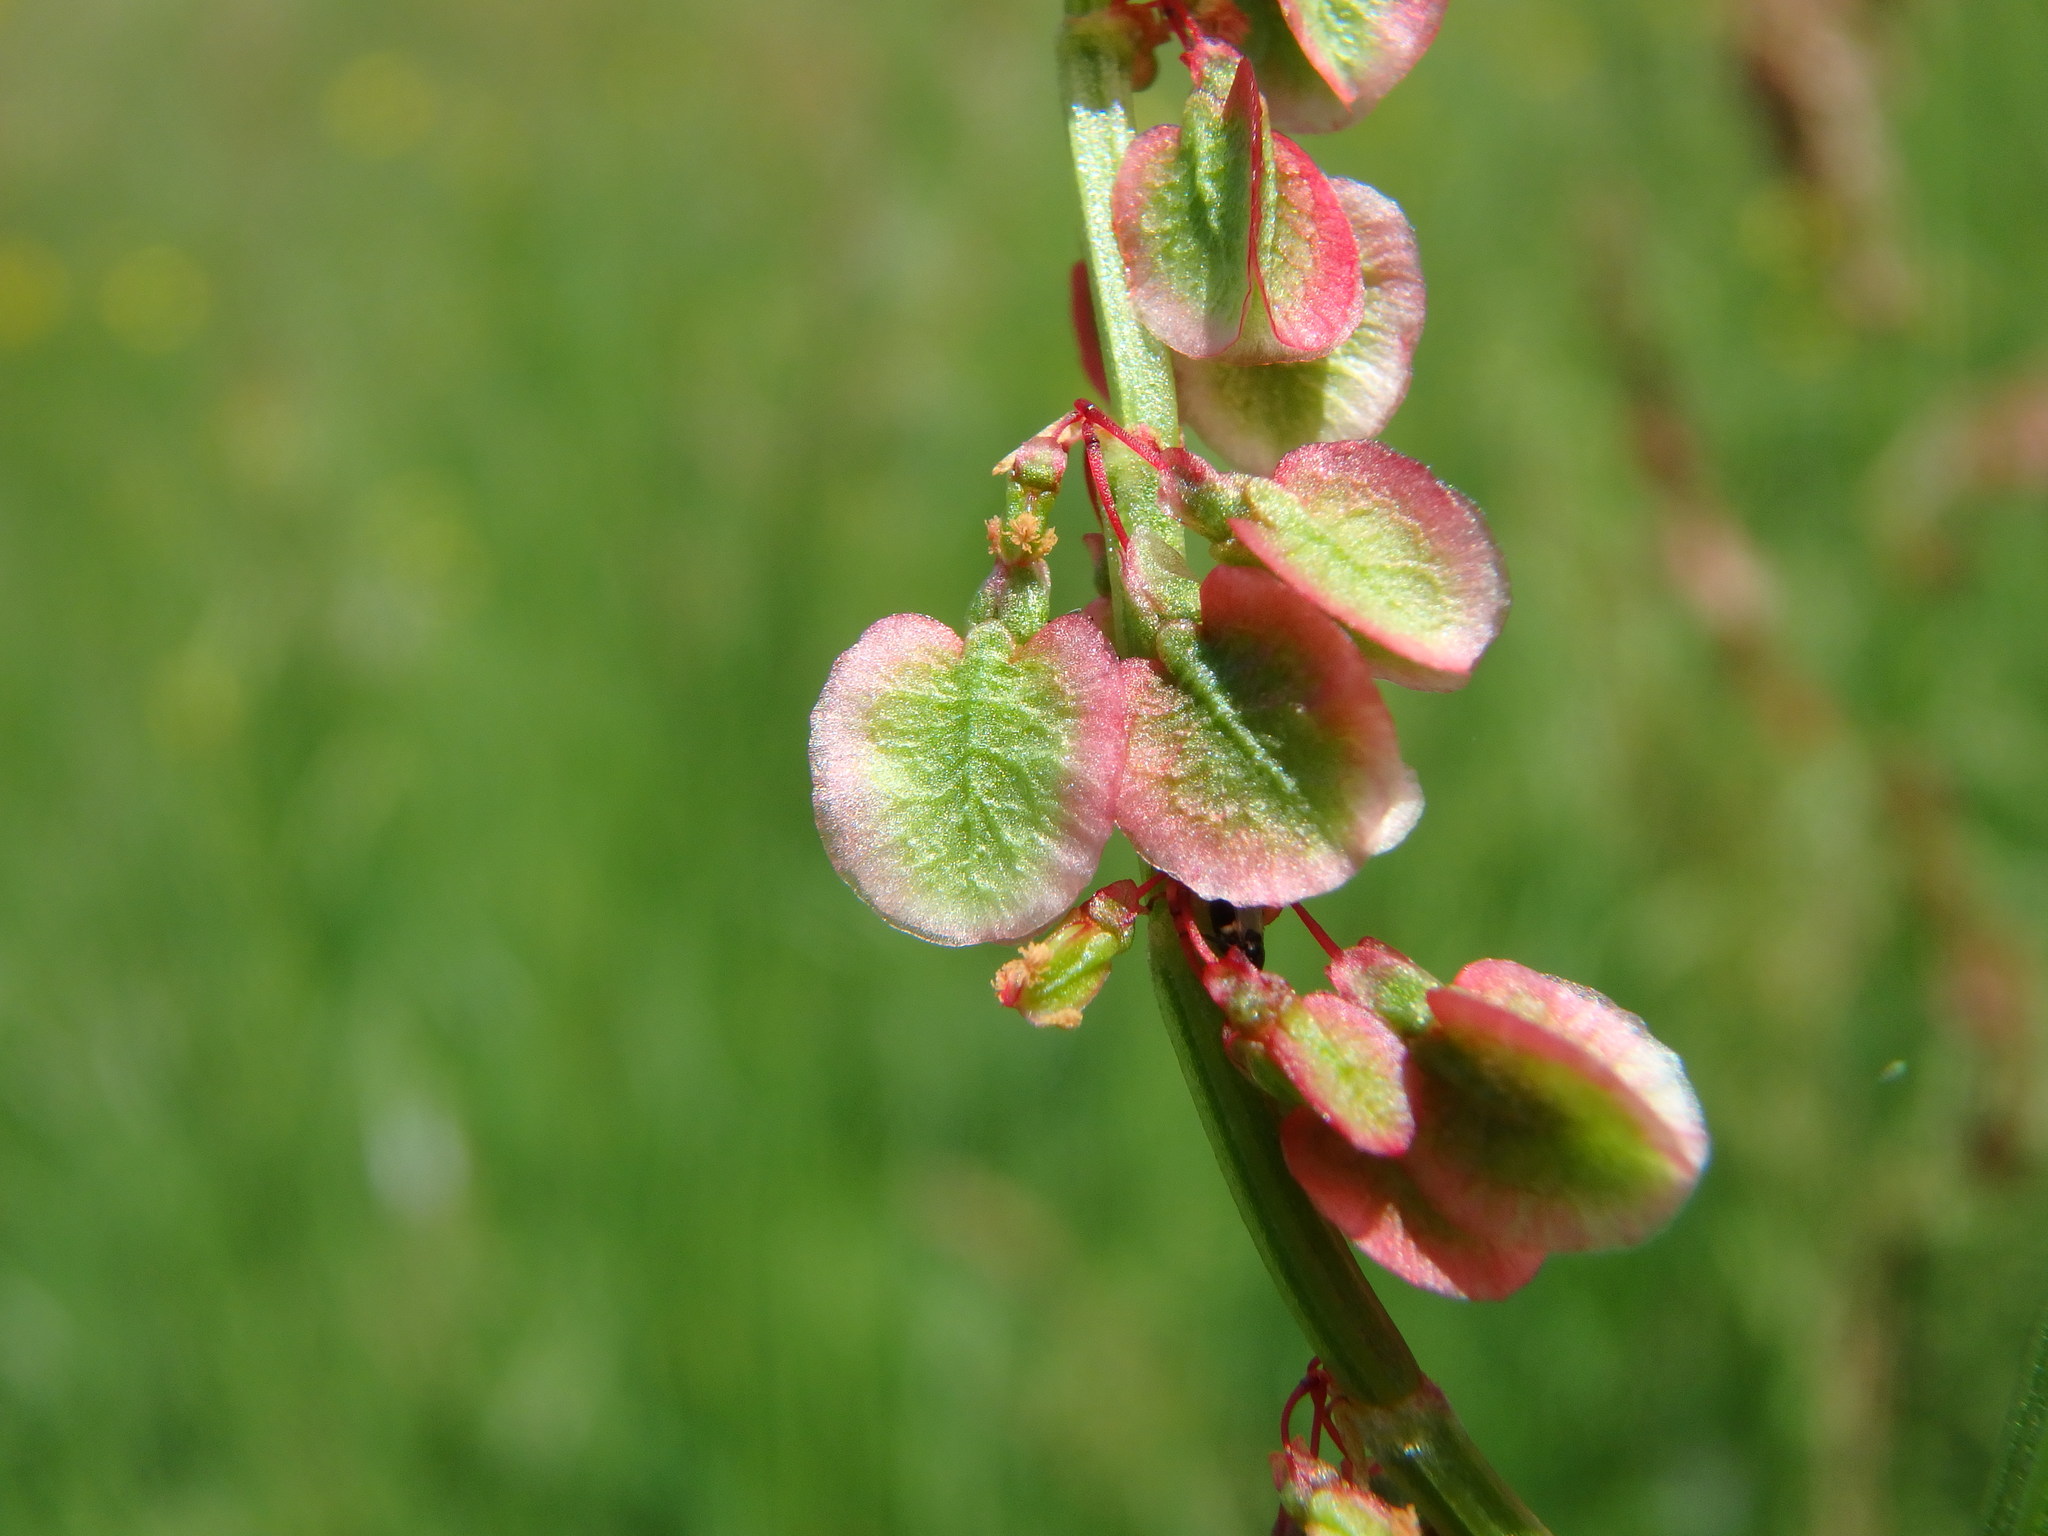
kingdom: Plantae
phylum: Tracheophyta
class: Magnoliopsida
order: Caryophyllales
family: Polygonaceae
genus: Rumex
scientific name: Rumex acetosa
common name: Garden sorrel
